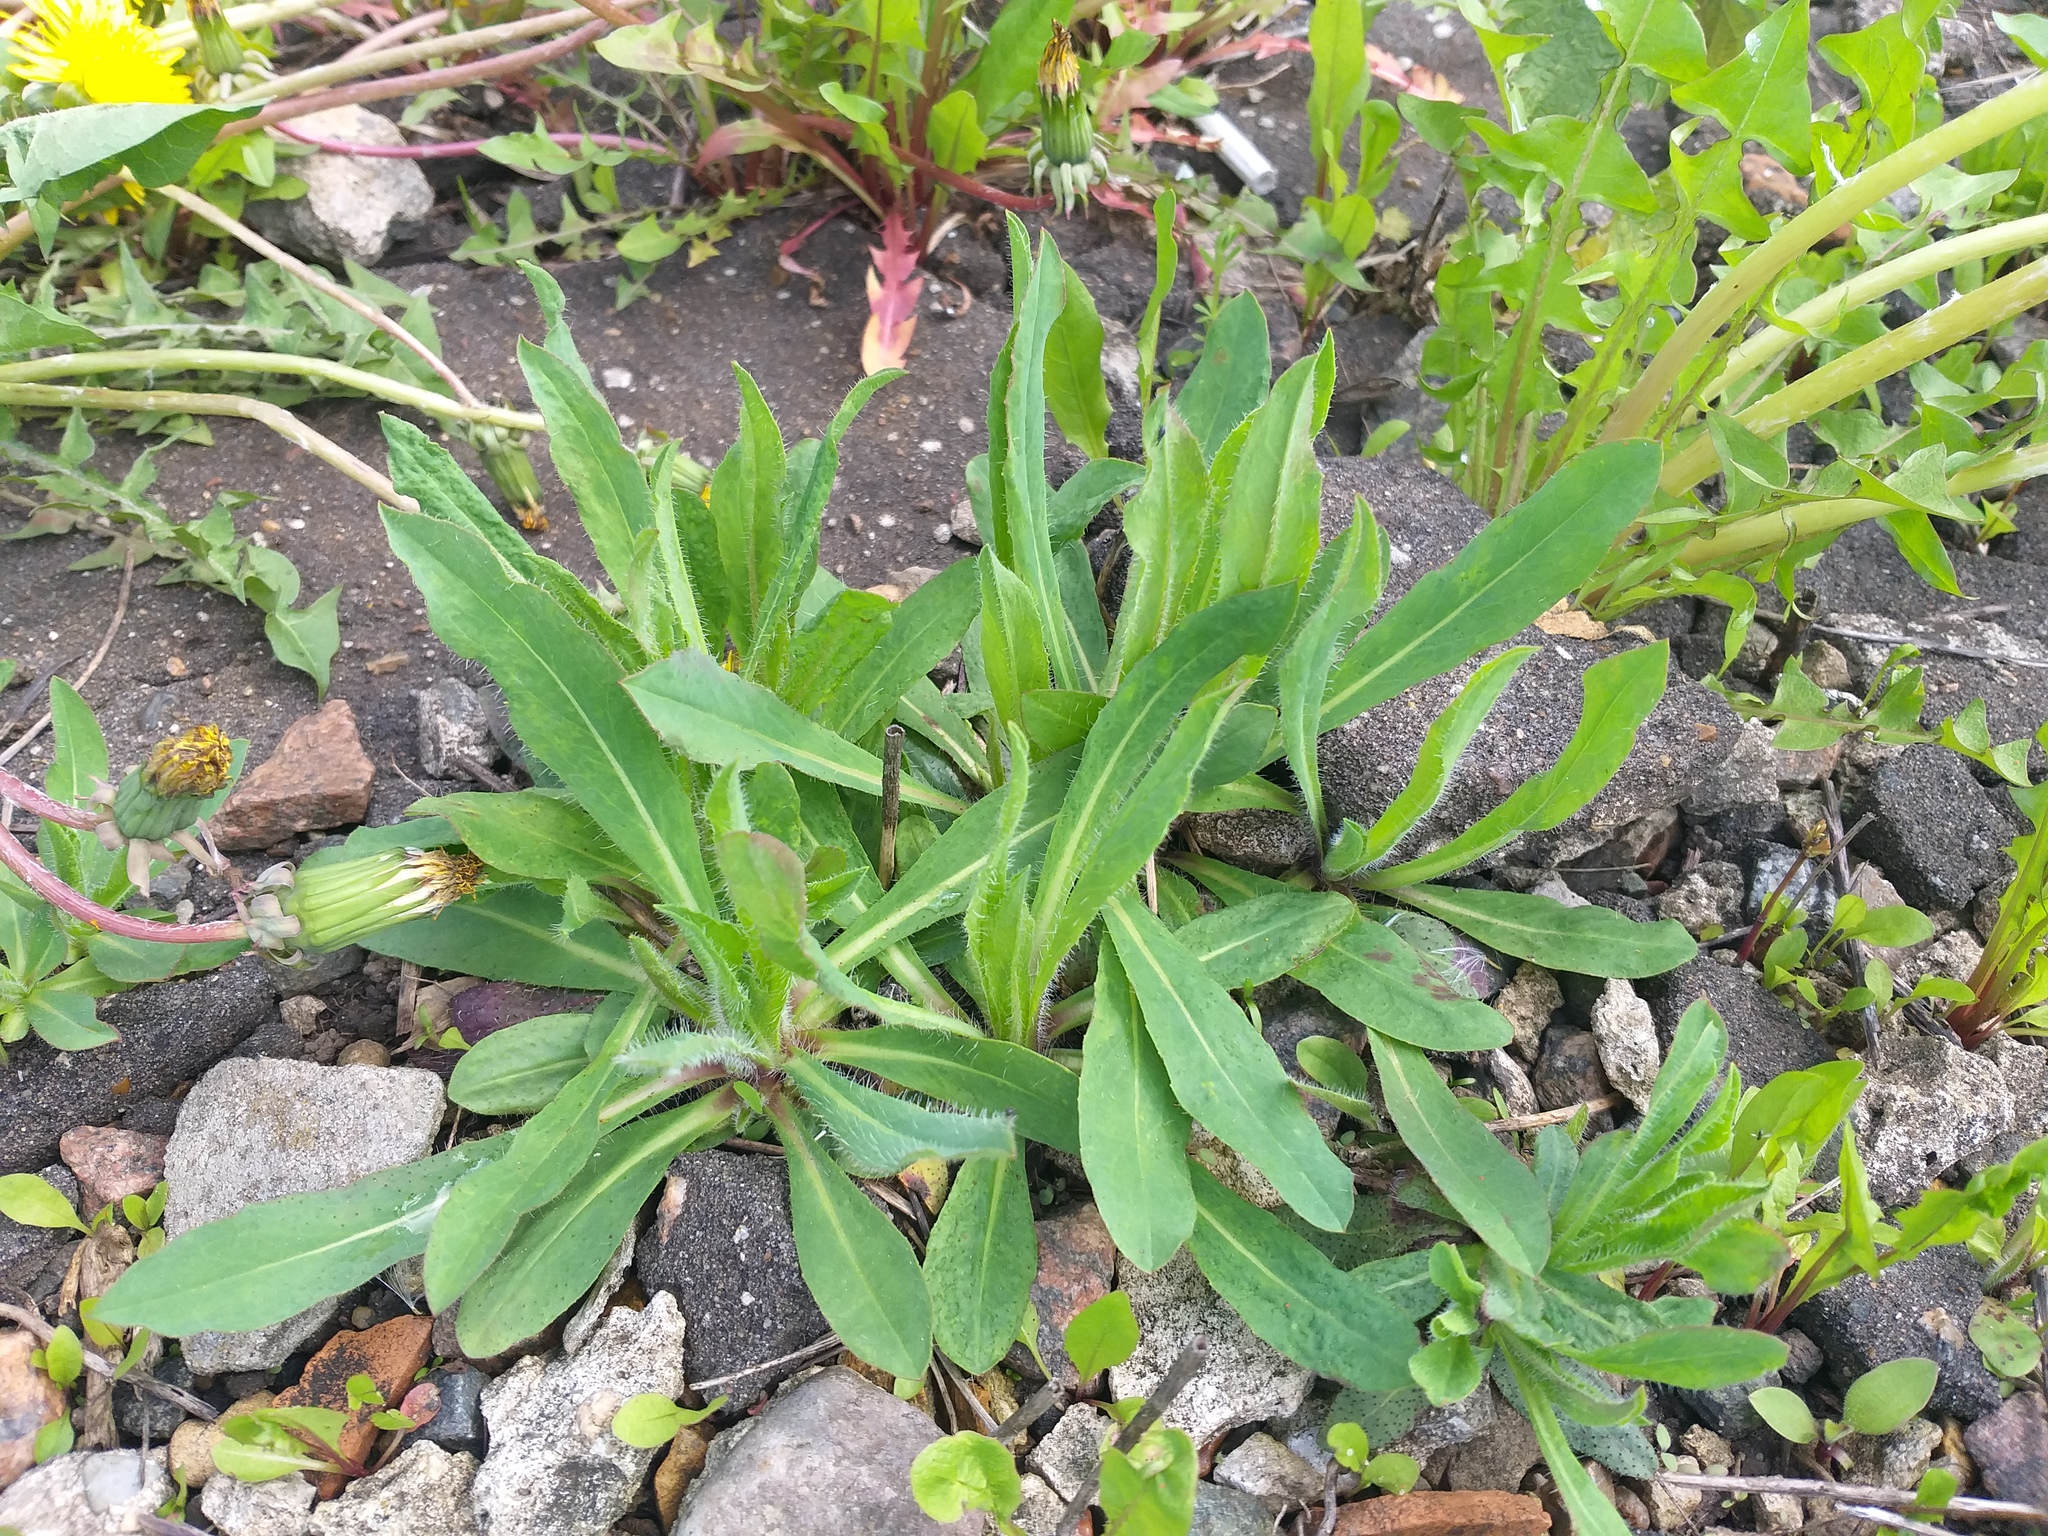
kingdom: Plantae
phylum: Tracheophyta
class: Magnoliopsida
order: Asterales
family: Asteraceae
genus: Pilosella
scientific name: Pilosella
